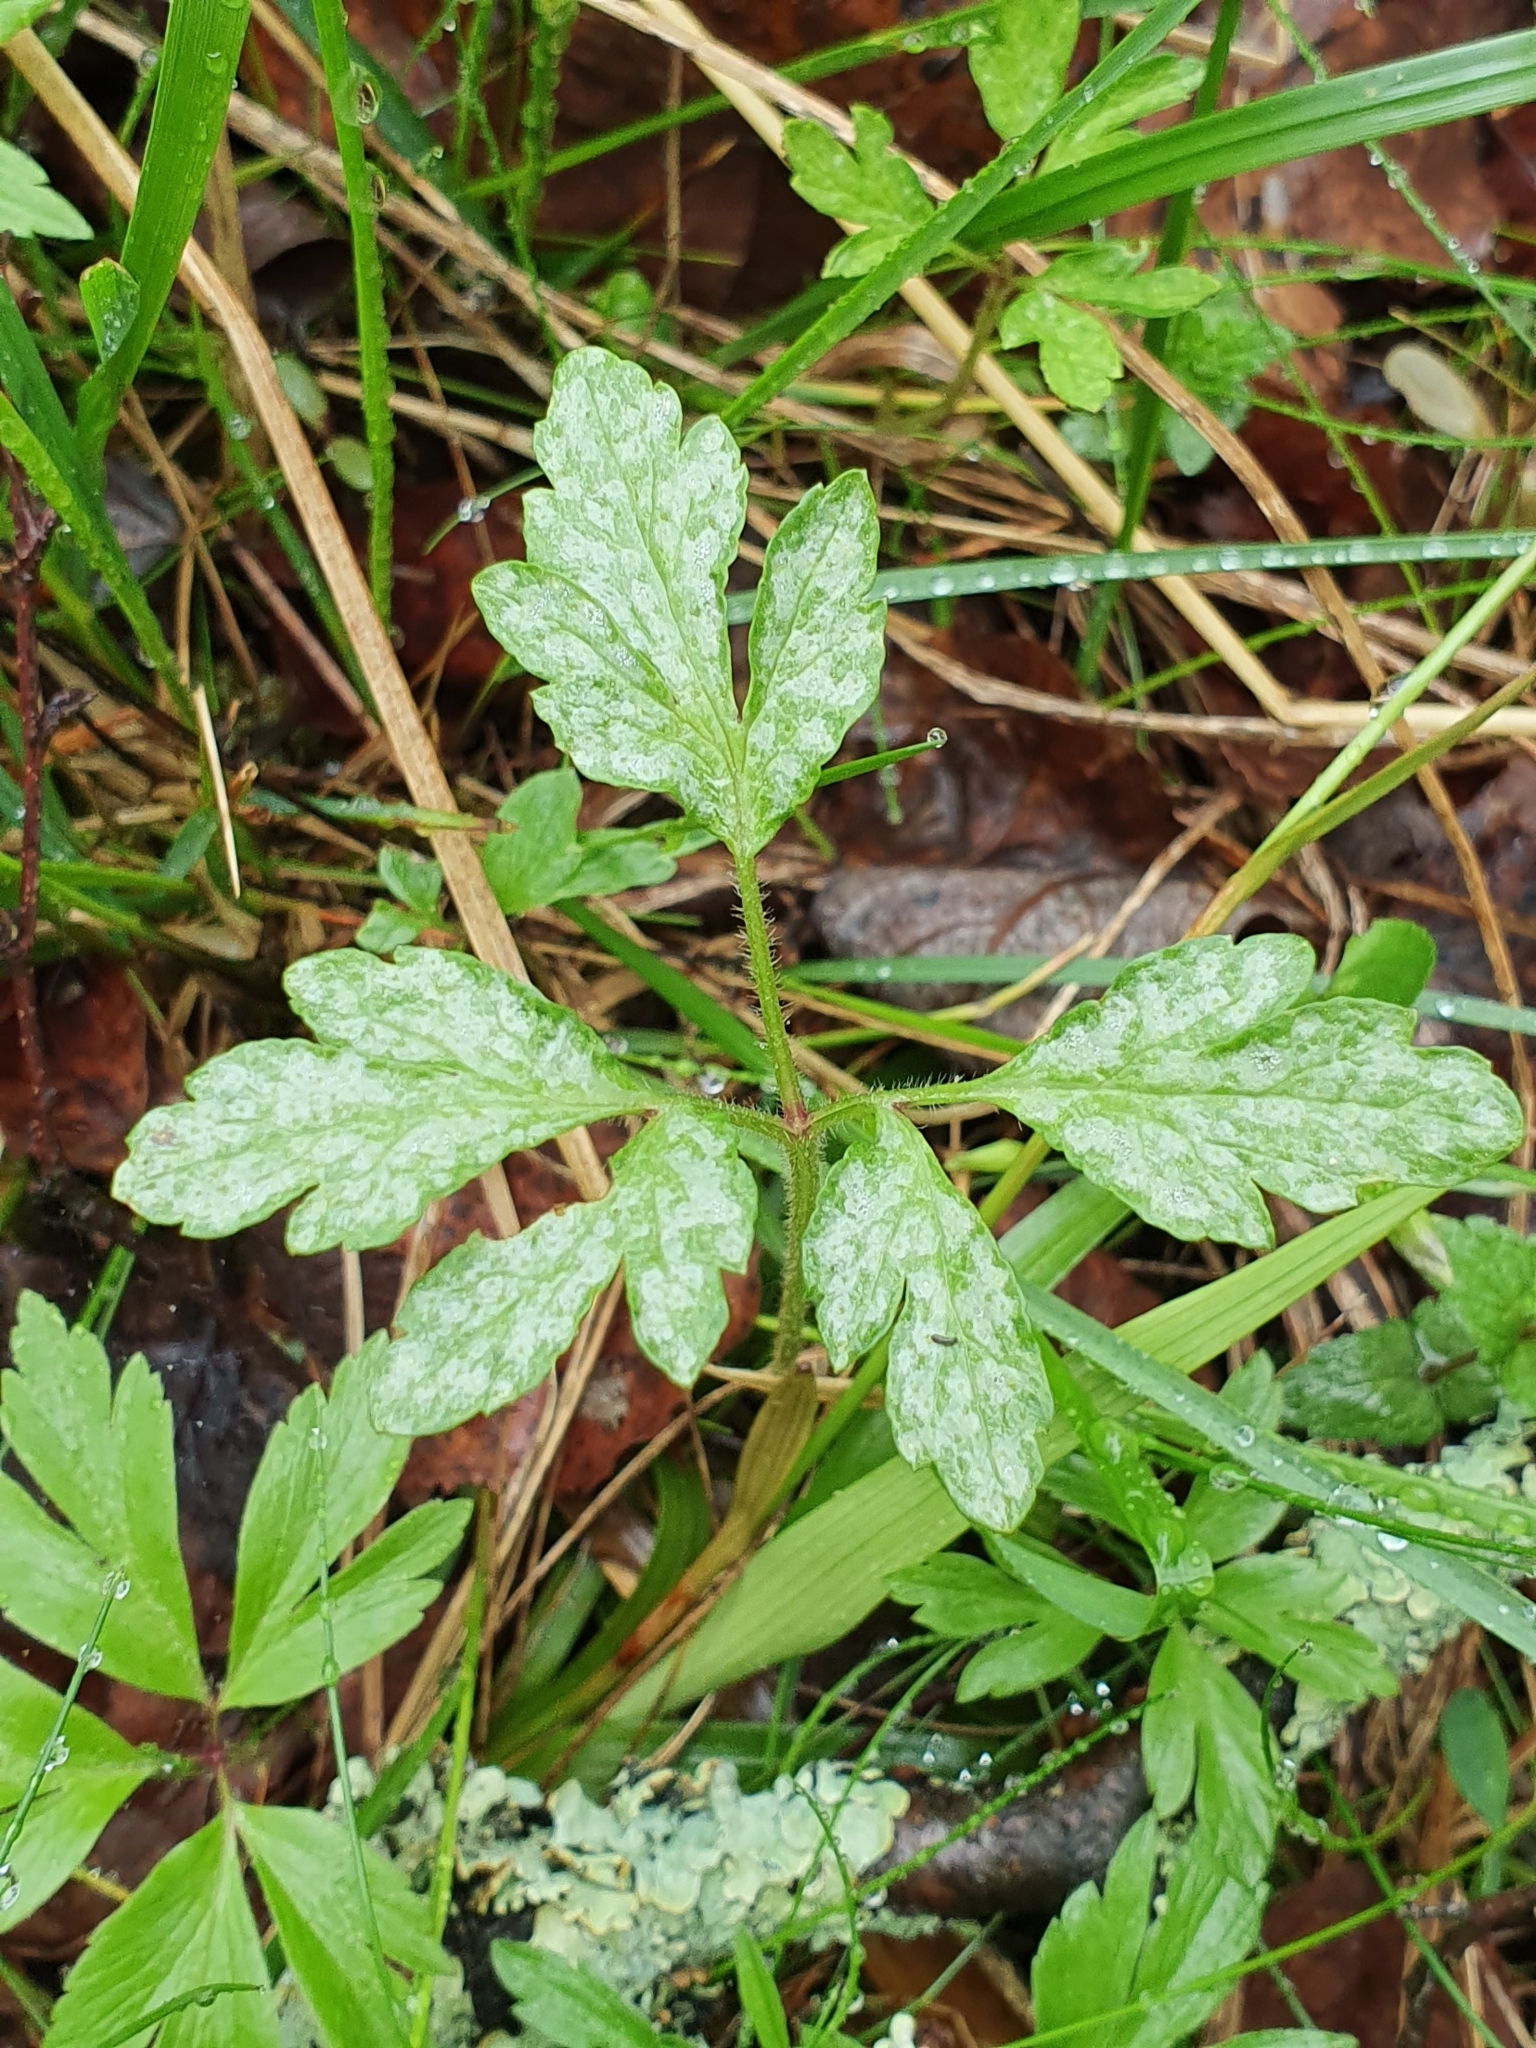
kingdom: Fungi
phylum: Basidiomycota
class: Pucciniomycetes
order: Pucciniales
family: Ochropsoraceae
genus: Ochropsora
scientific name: Ochropsora ariae
